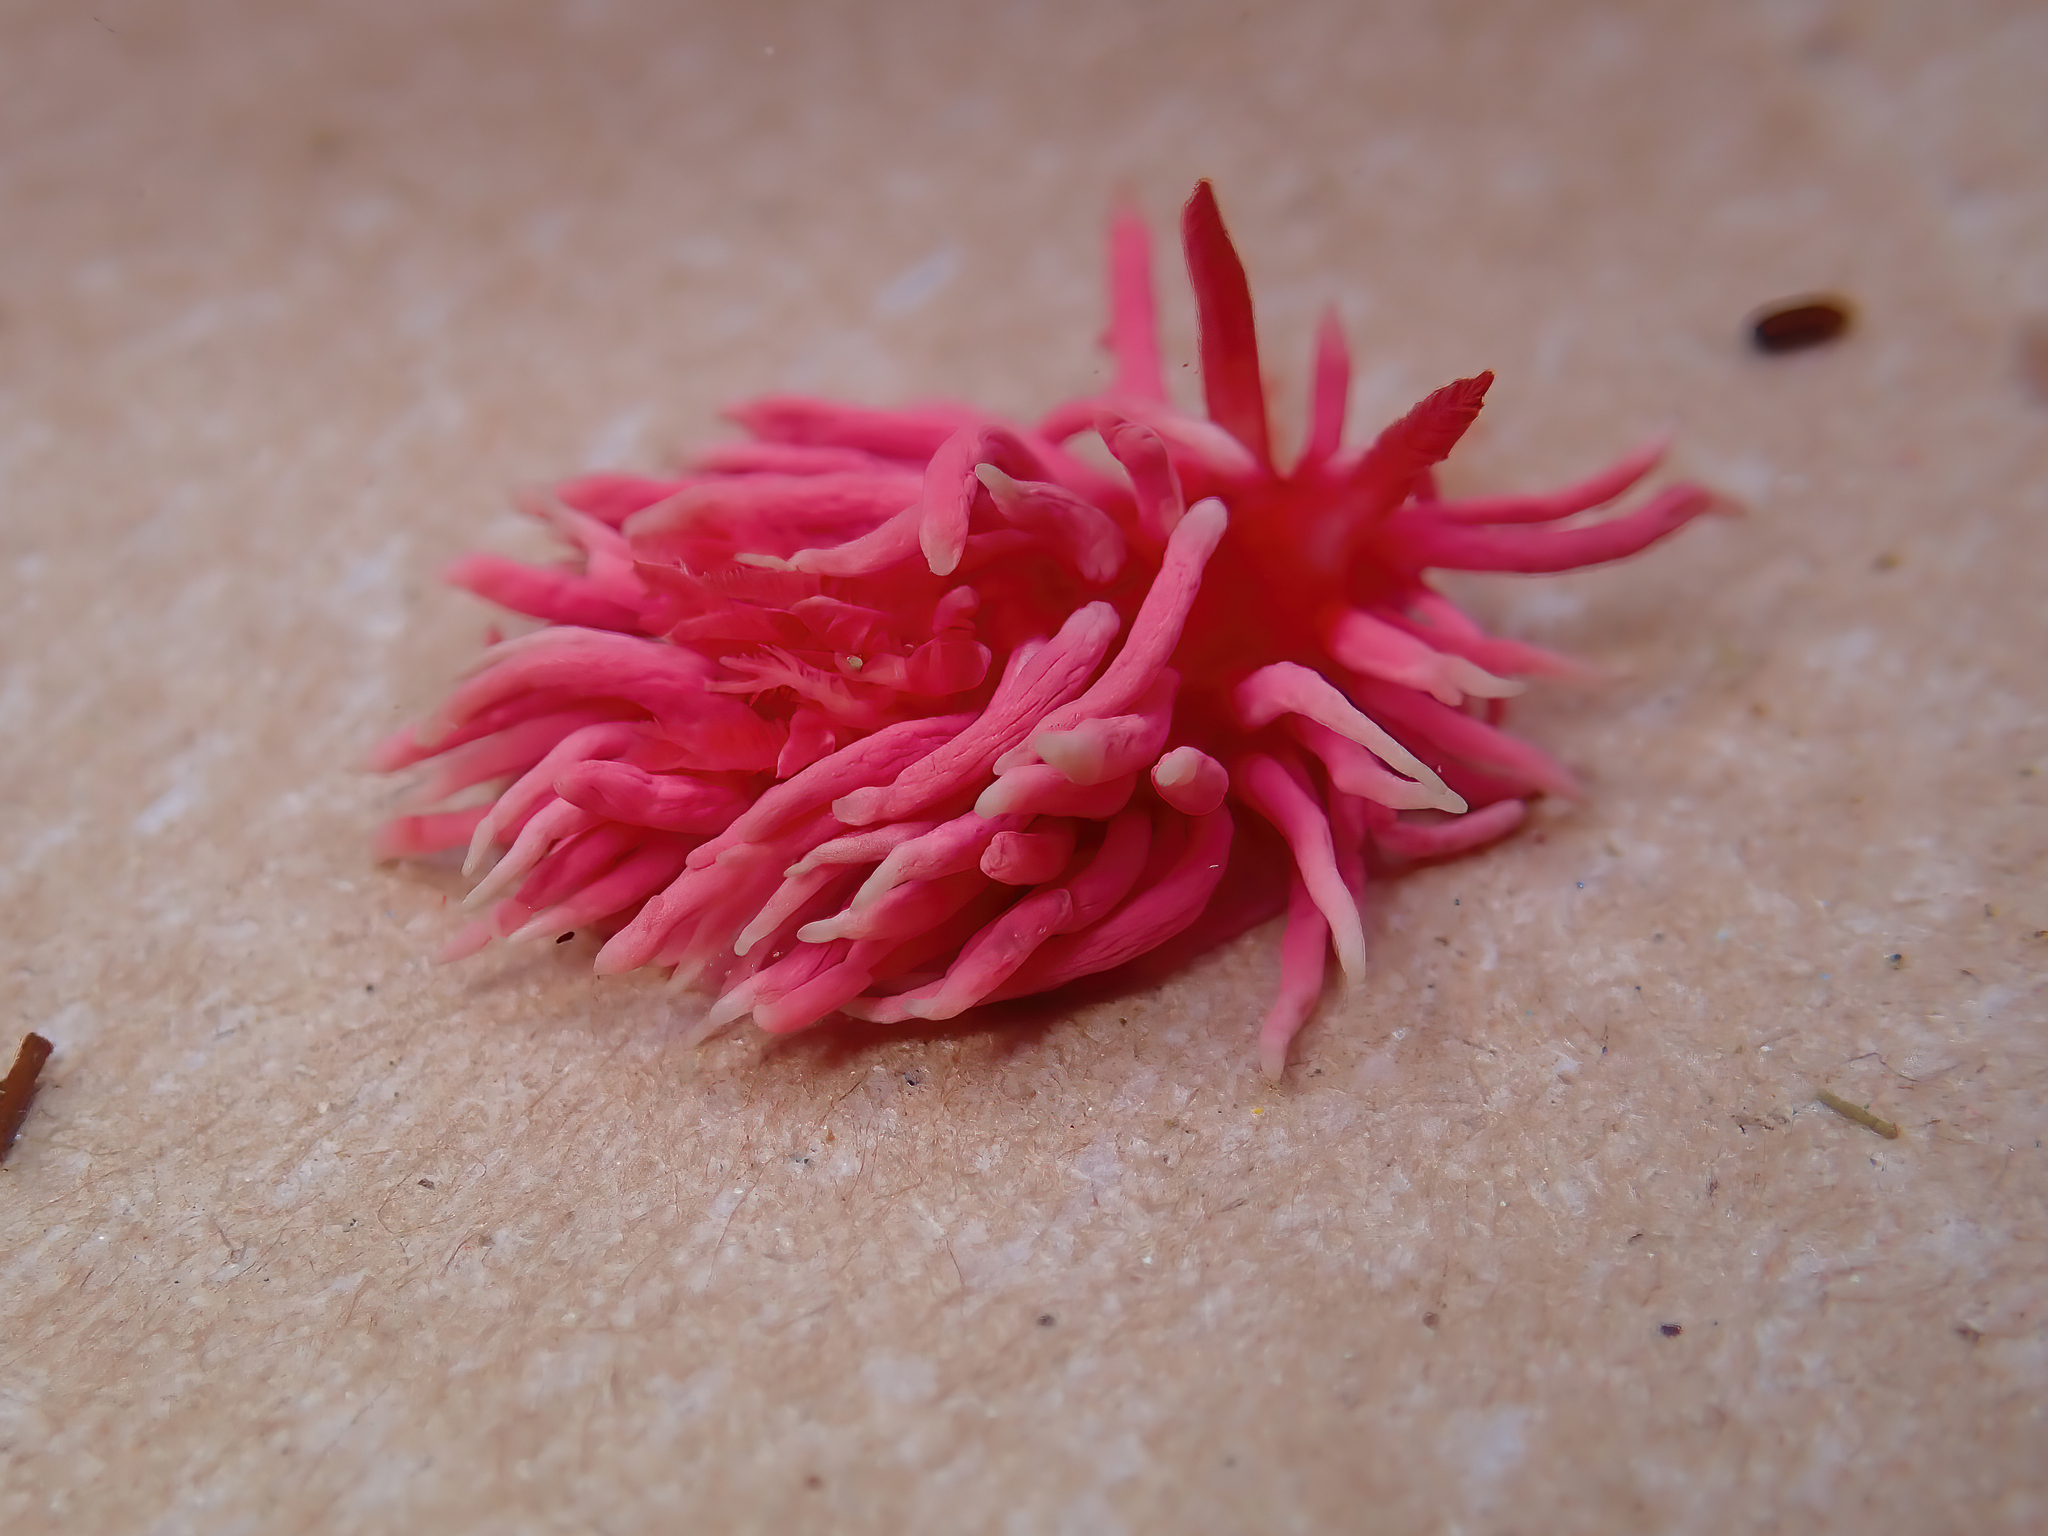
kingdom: Animalia
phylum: Mollusca
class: Gastropoda
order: Nudibranchia
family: Goniodorididae
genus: Okenia
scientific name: Okenia
